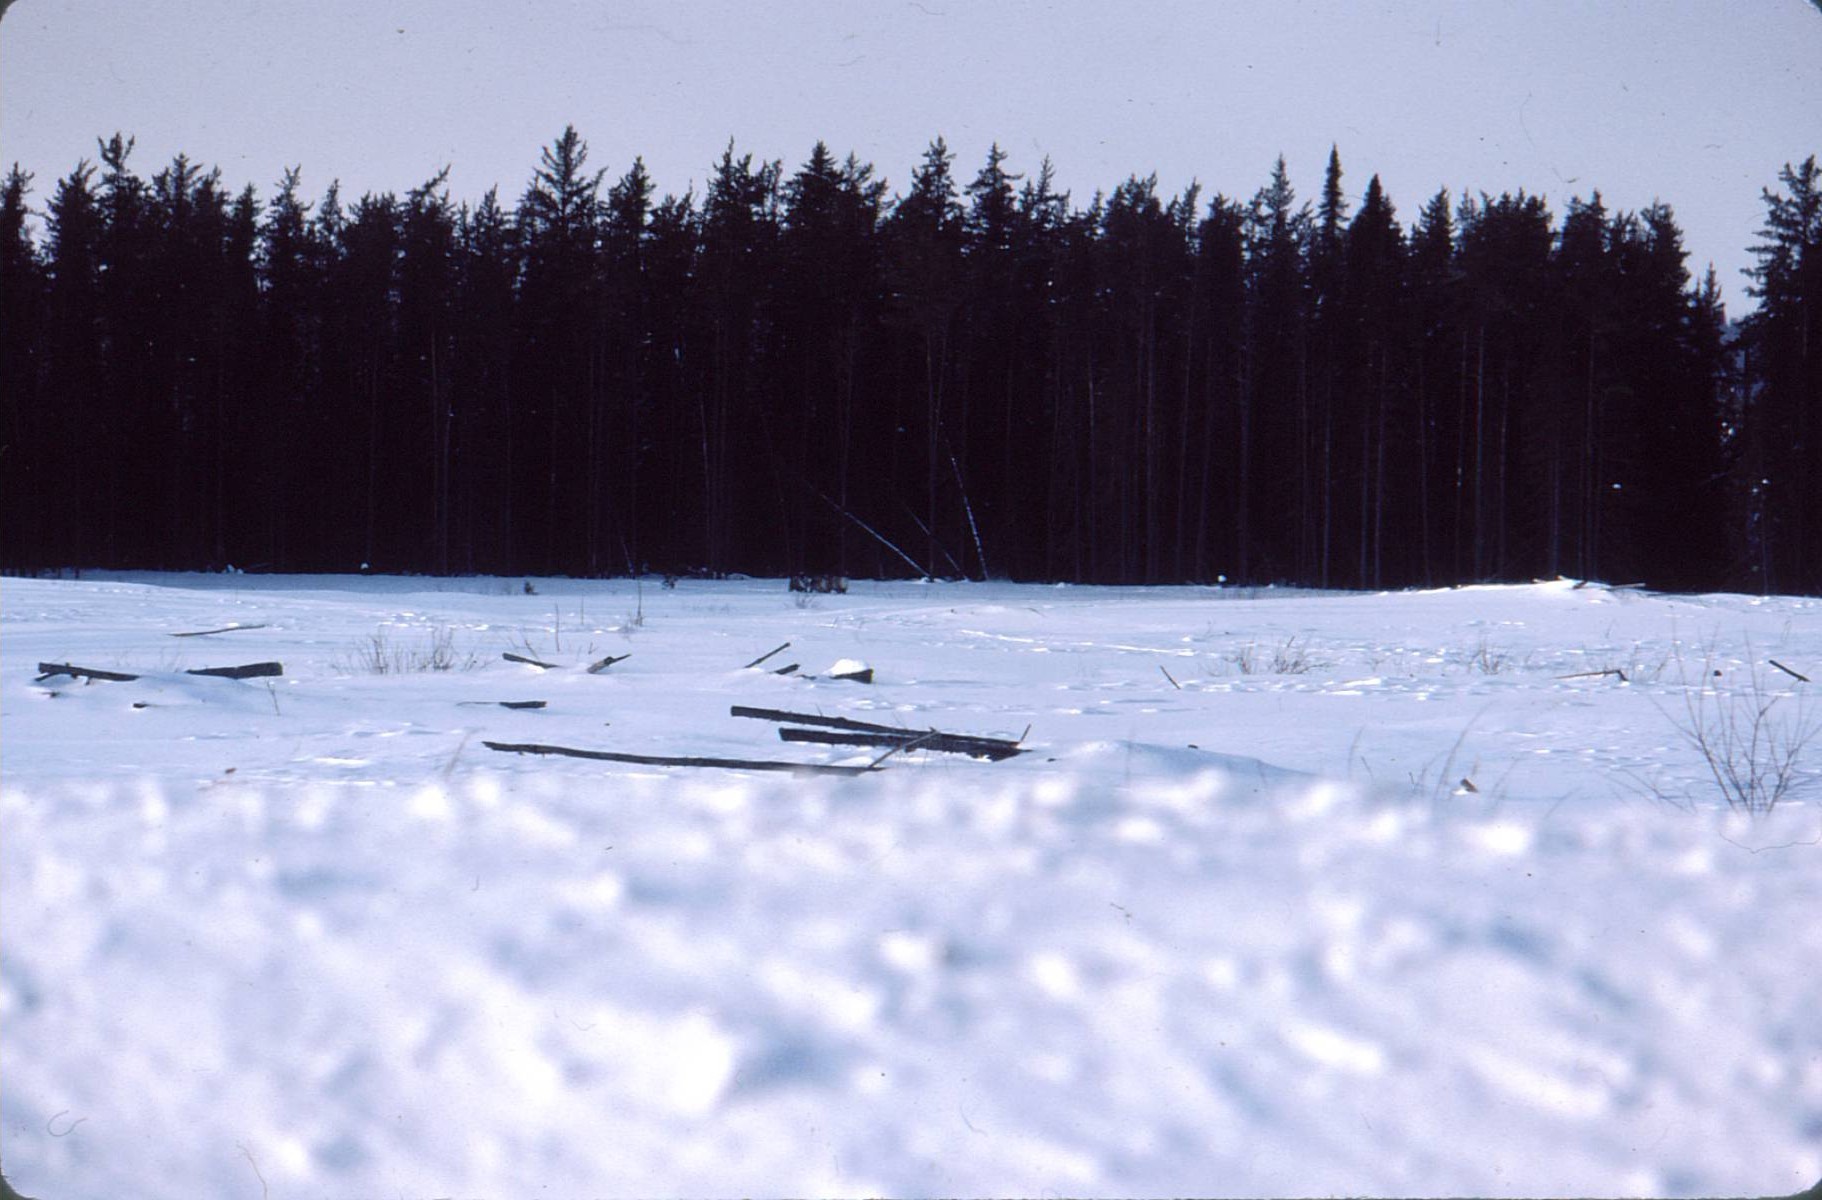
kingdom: Animalia
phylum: Chordata
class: Mammalia
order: Artiodactyla
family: Cervidae
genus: Rangifer
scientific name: Rangifer tarandus
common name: Reindeer
